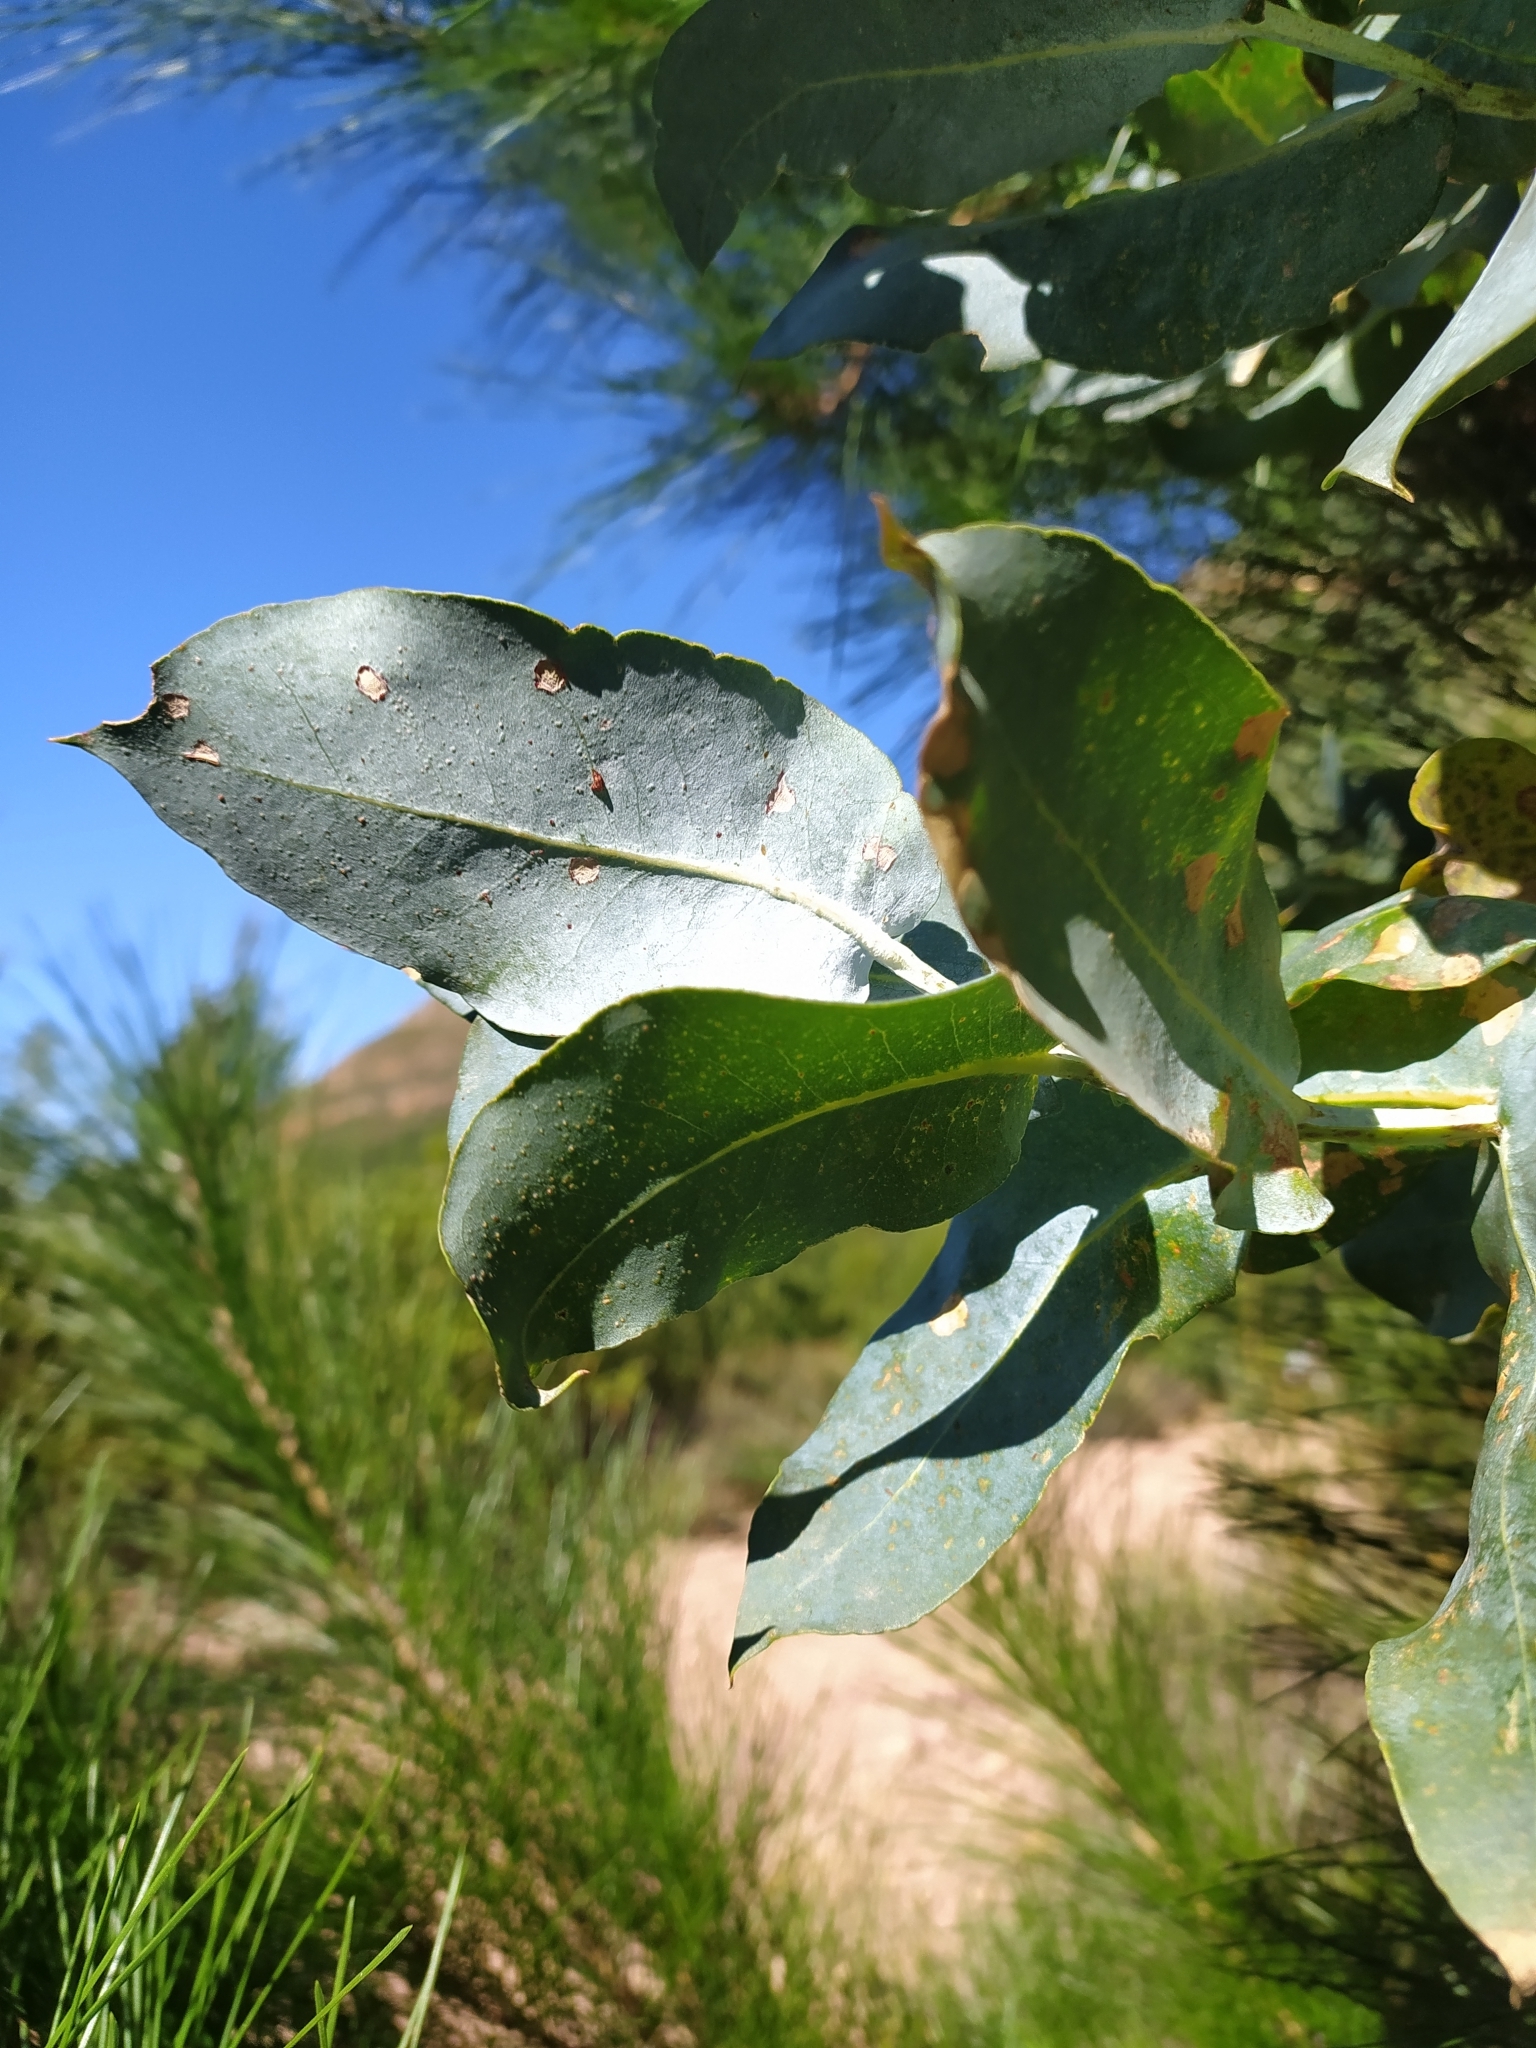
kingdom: Plantae
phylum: Tracheophyta
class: Magnoliopsida
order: Myrtales
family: Myrtaceae
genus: Eucalyptus
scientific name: Eucalyptus cinerea
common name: Argyle apple
